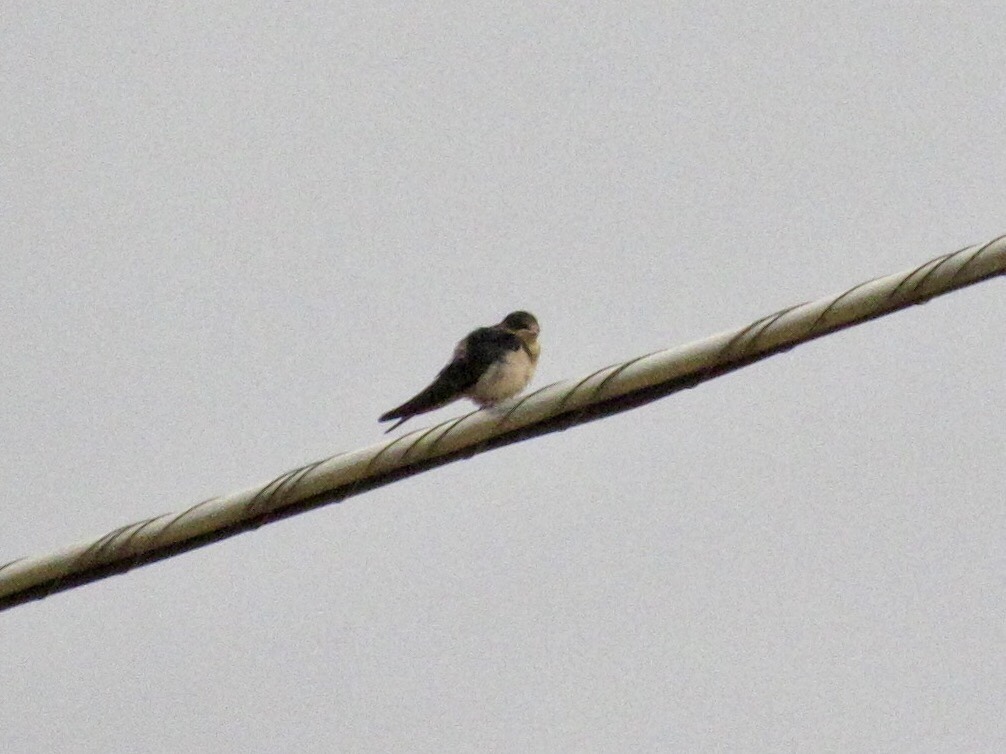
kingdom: Animalia
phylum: Chordata
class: Aves
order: Passeriformes
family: Hirundinidae
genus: Hirundo
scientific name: Hirundo rustica
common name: Barn swallow
